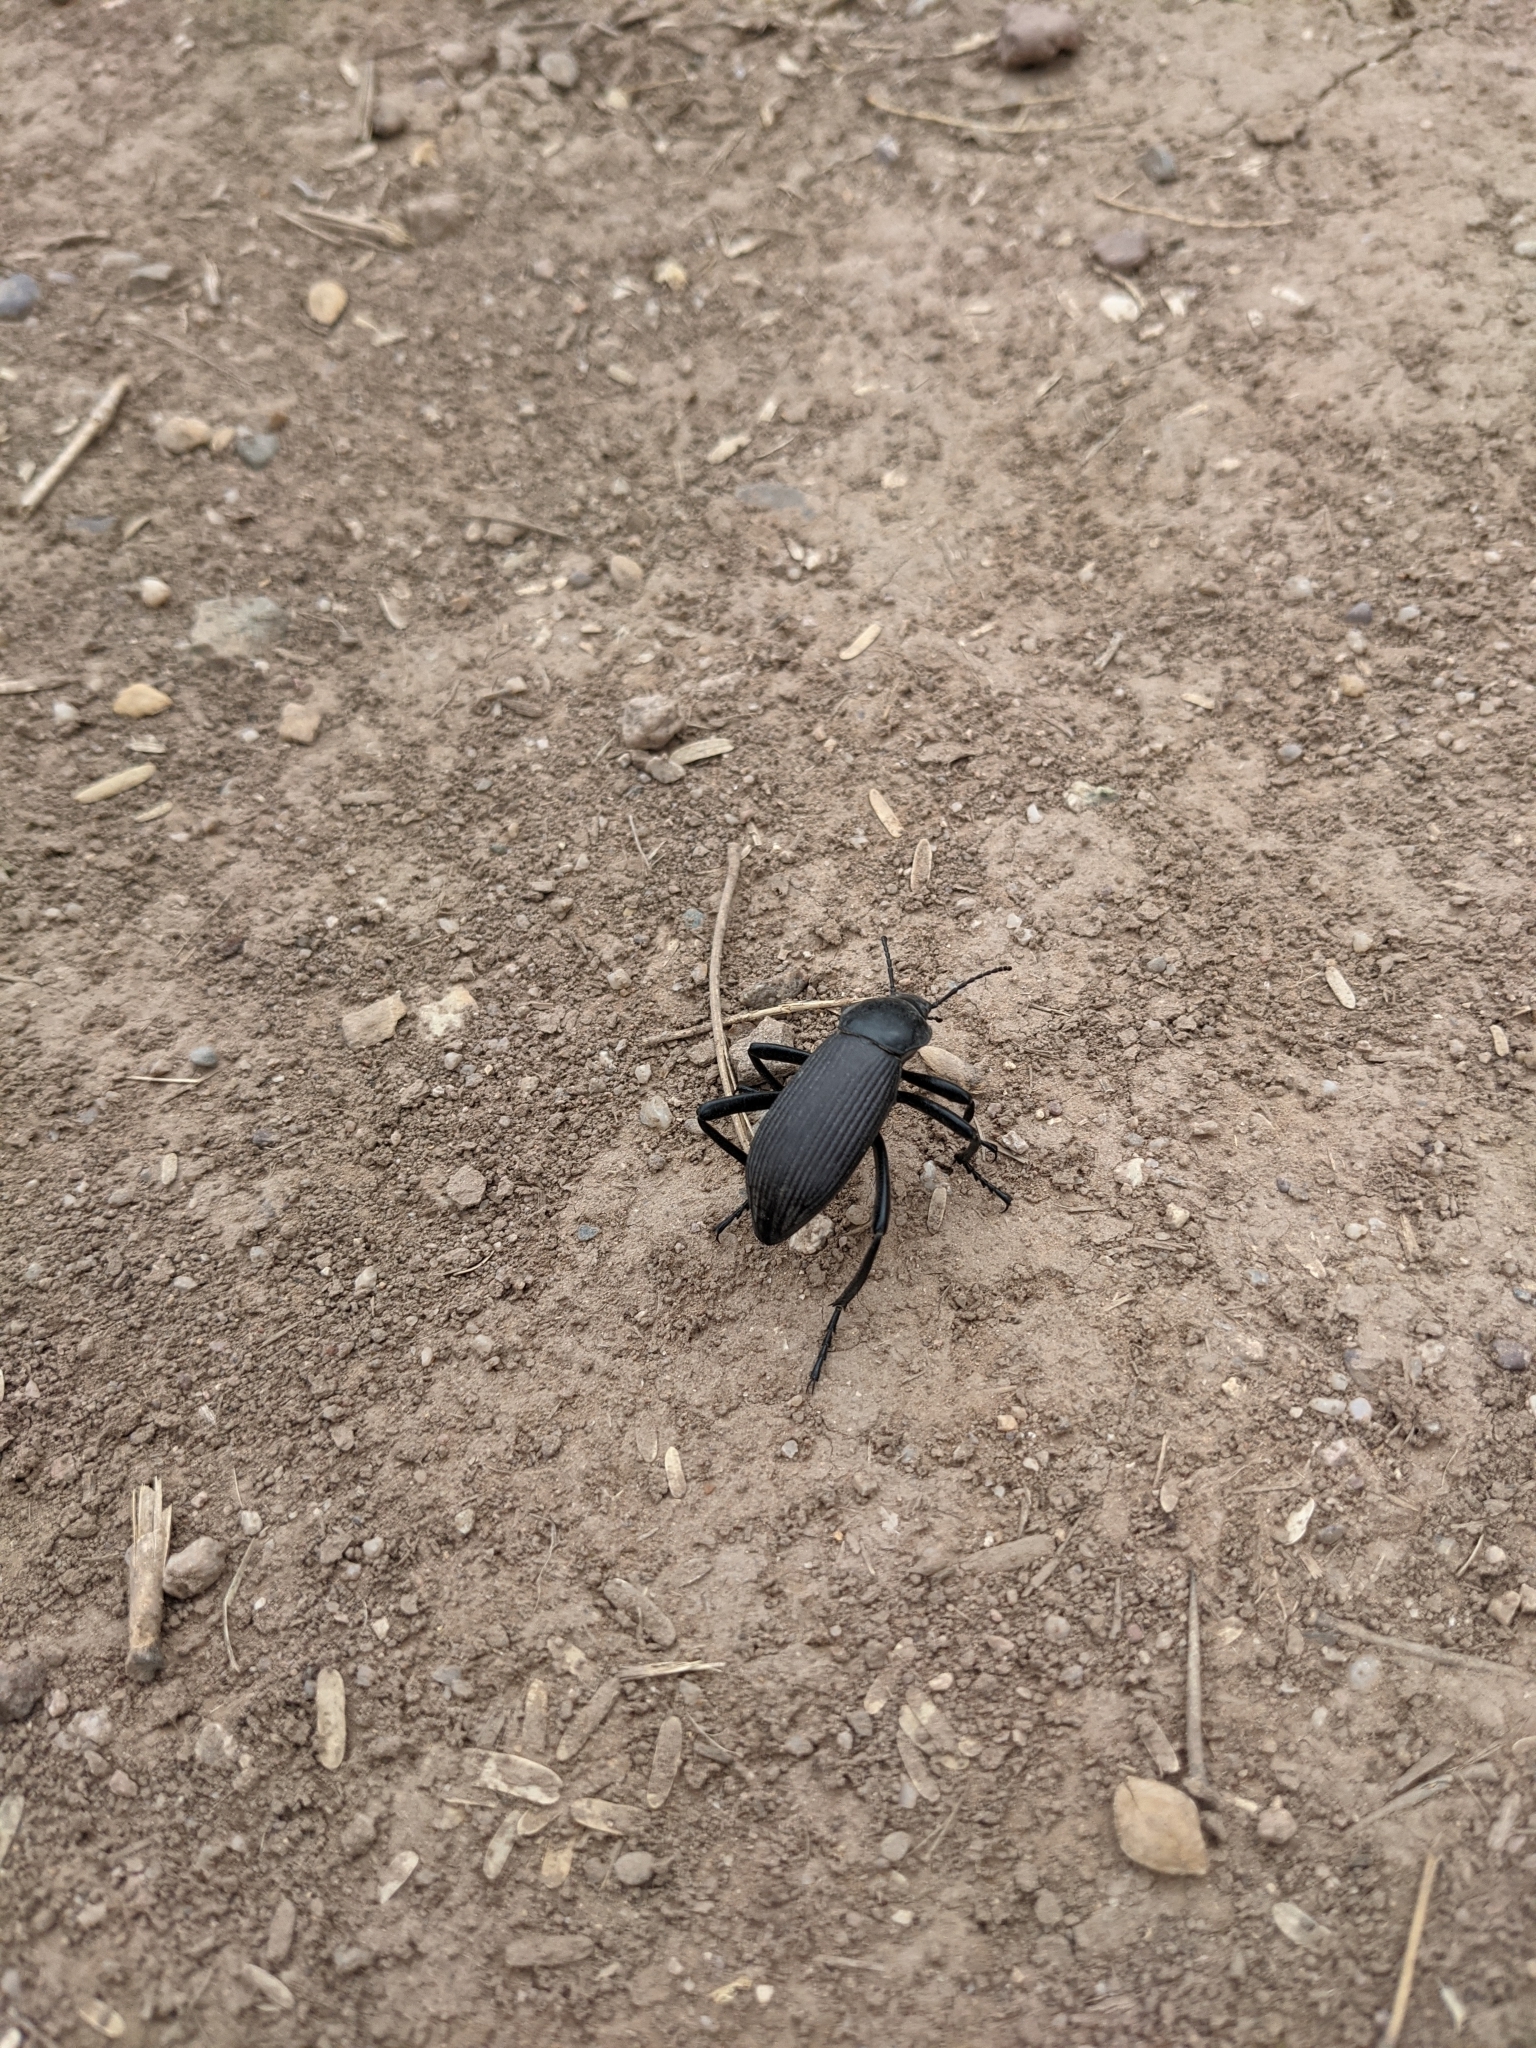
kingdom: Animalia
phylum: Arthropoda
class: Insecta
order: Coleoptera
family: Tenebrionidae
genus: Eleodes
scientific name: Eleodes obscura
